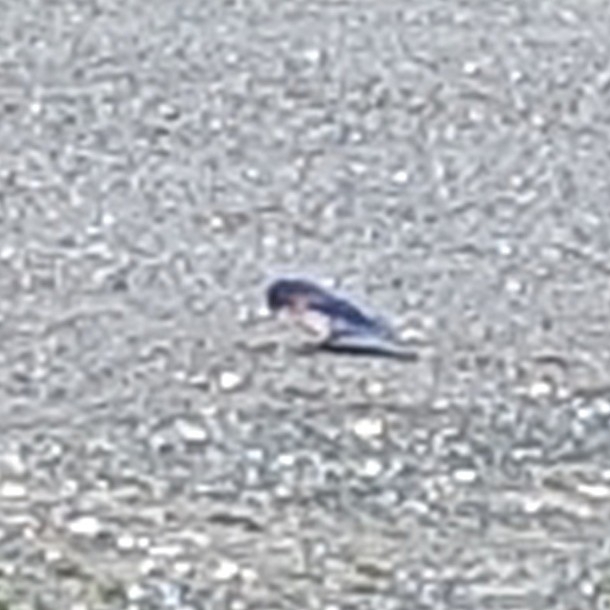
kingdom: Animalia
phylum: Chordata
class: Aves
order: Passeriformes
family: Turdidae
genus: Sialia
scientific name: Sialia mexicana
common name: Western bluebird
